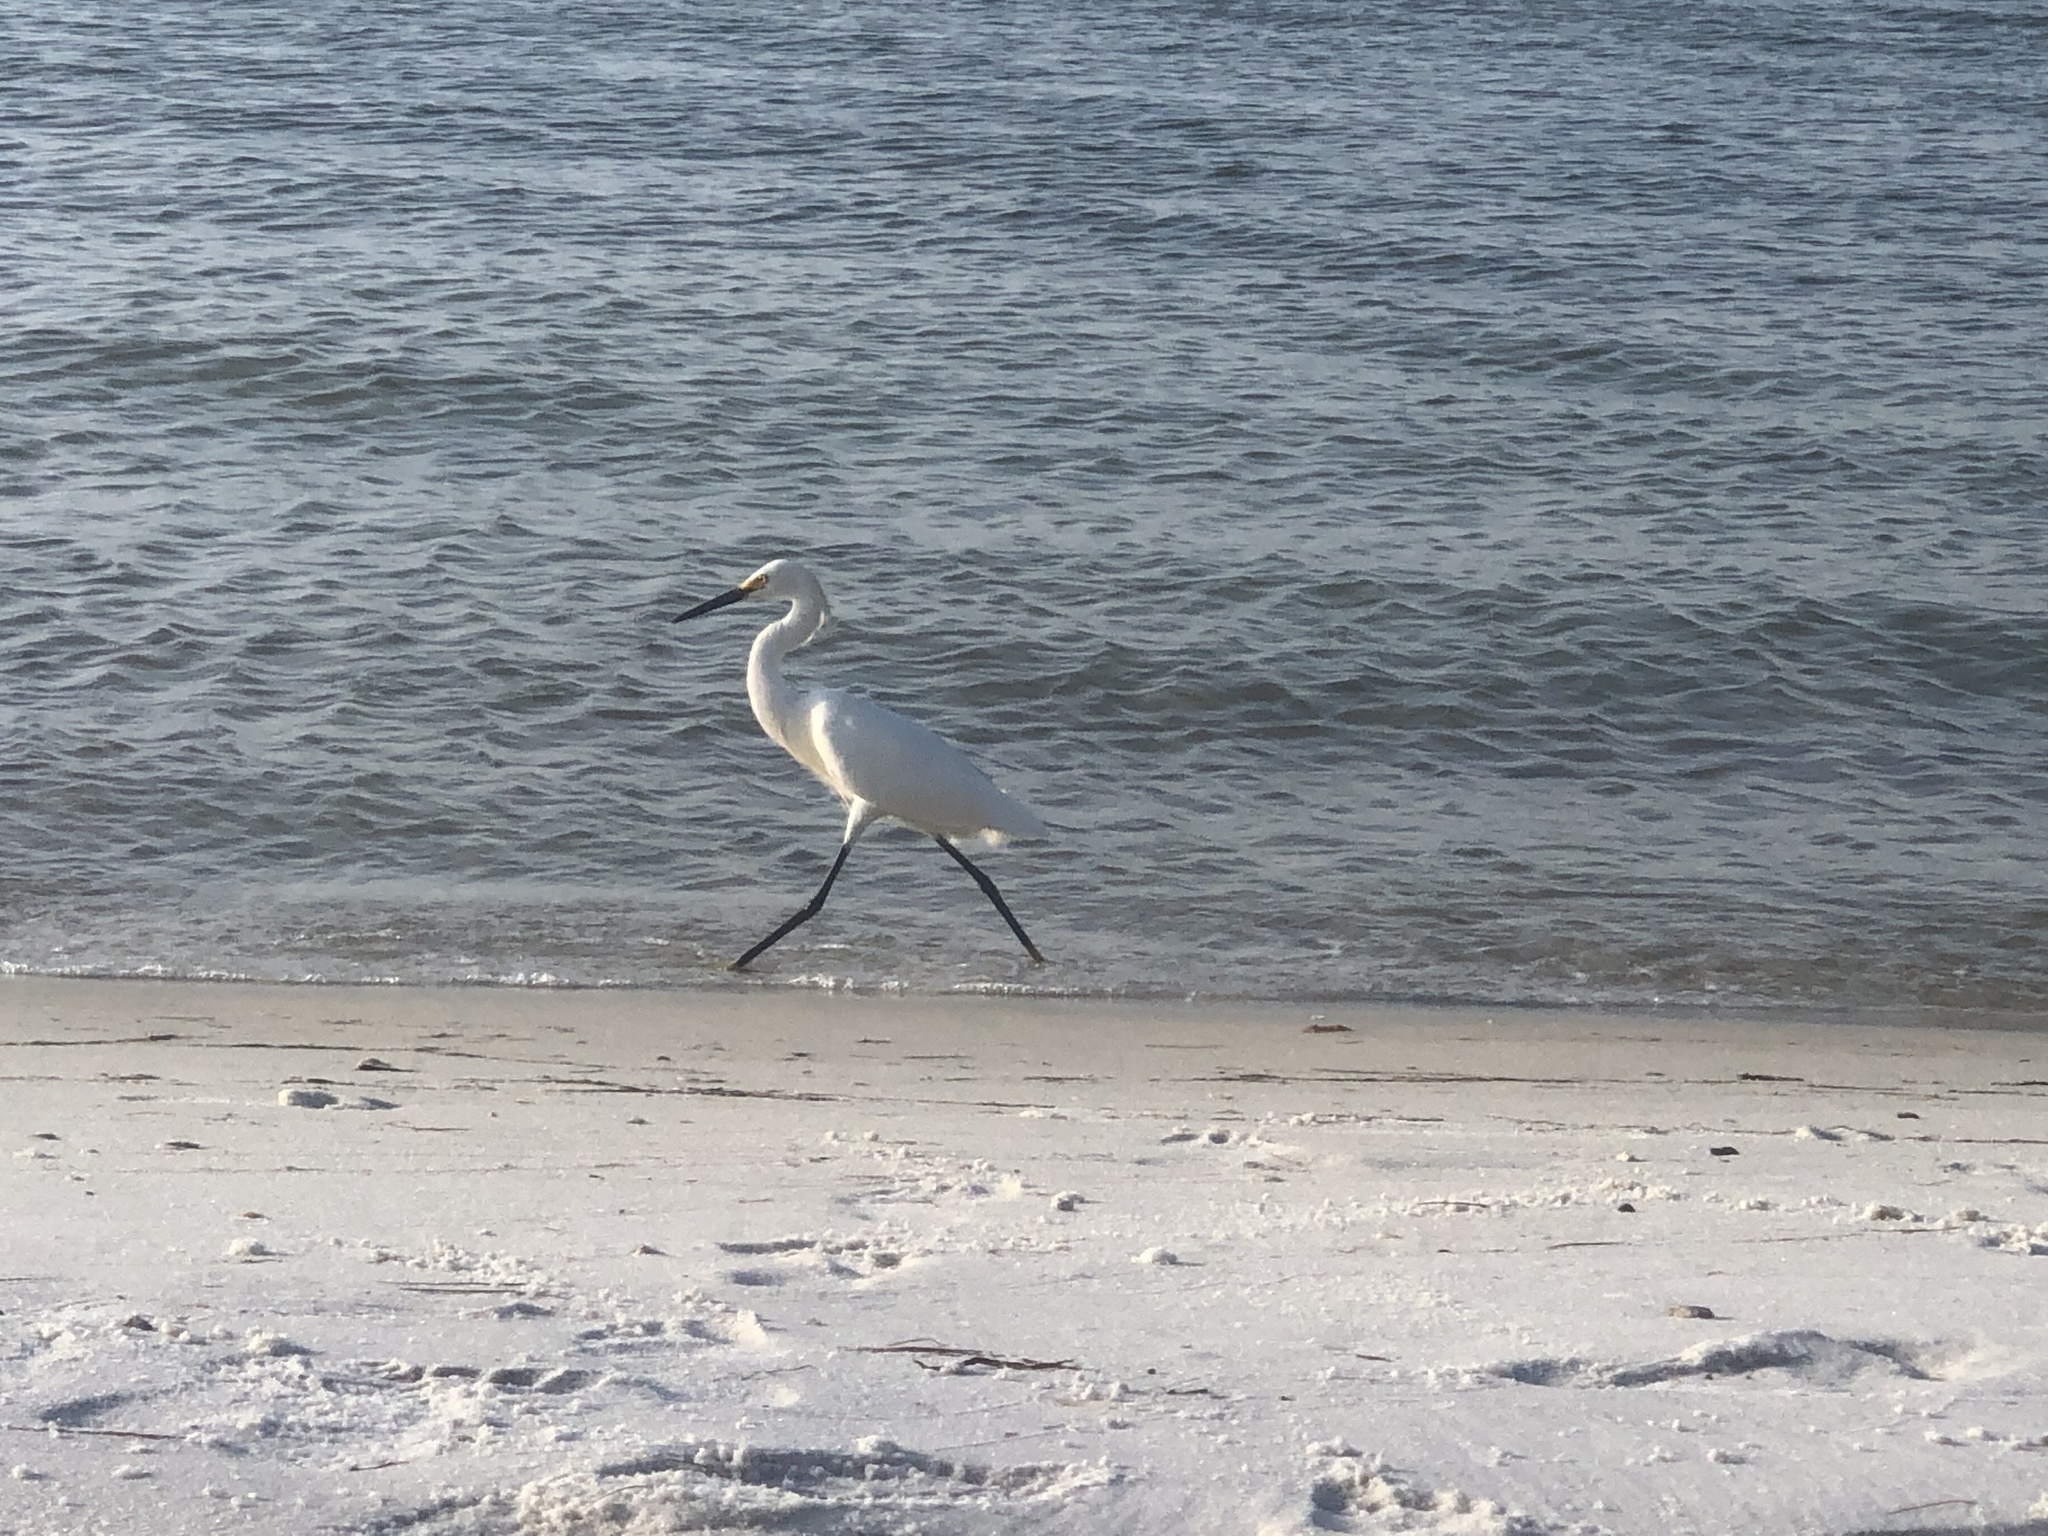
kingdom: Animalia
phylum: Chordata
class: Aves
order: Pelecaniformes
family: Ardeidae
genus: Egretta
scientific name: Egretta thula
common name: Snowy egret
